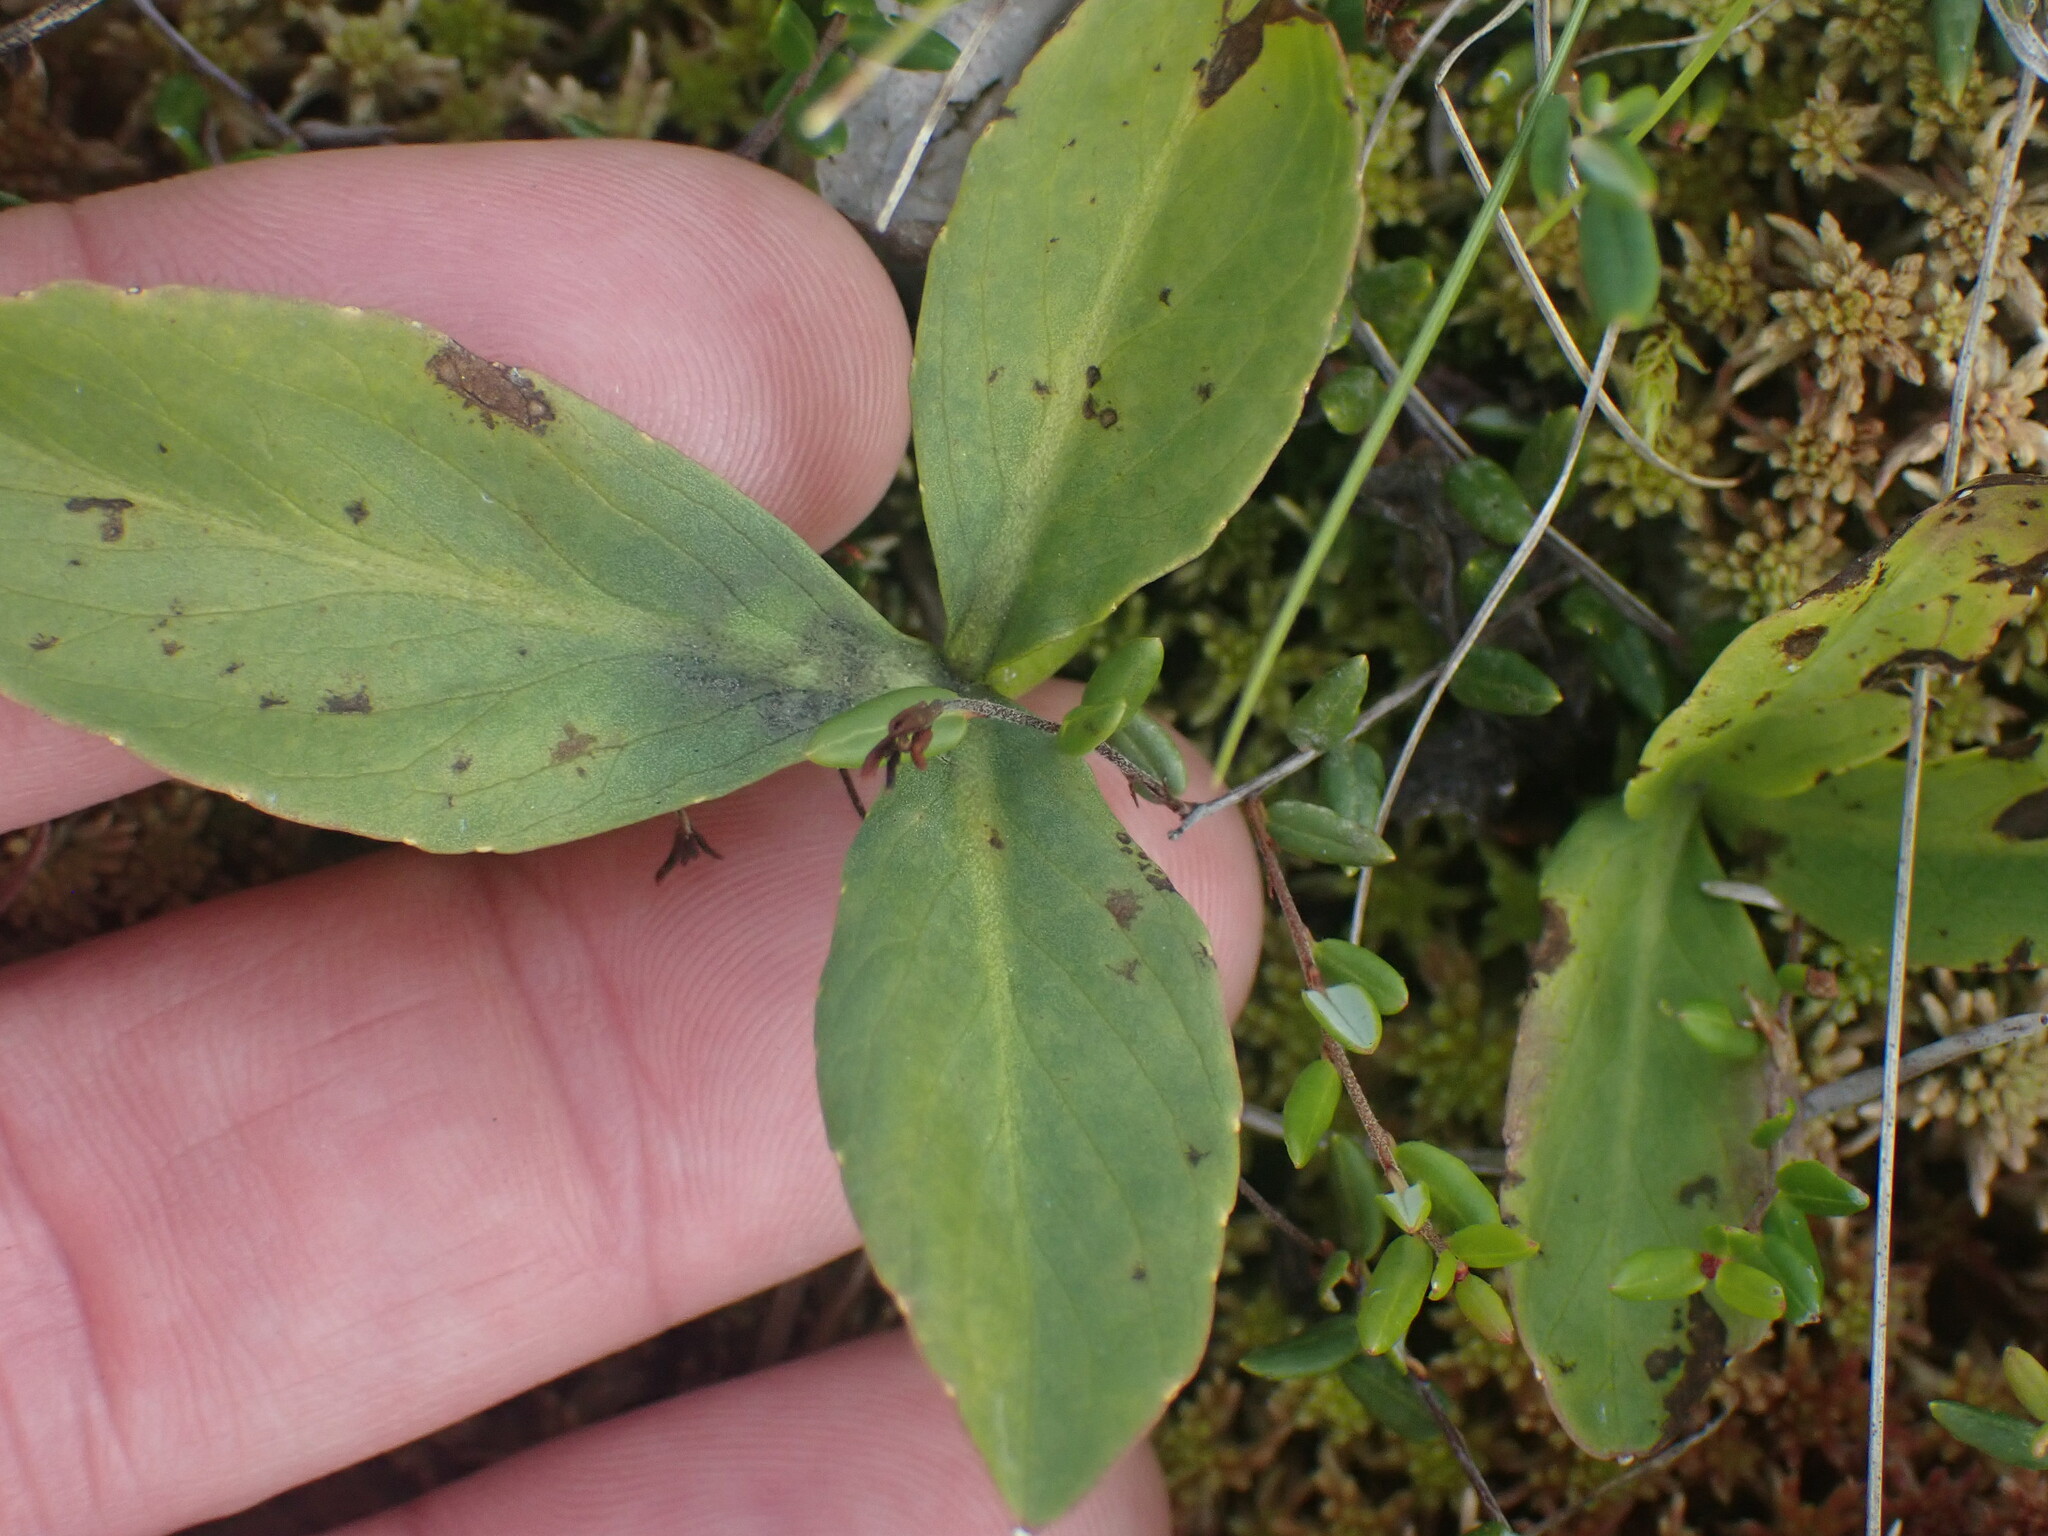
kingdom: Plantae
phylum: Tracheophyta
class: Magnoliopsida
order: Asterales
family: Menyanthaceae
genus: Menyanthes
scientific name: Menyanthes trifoliata
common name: Bogbean
